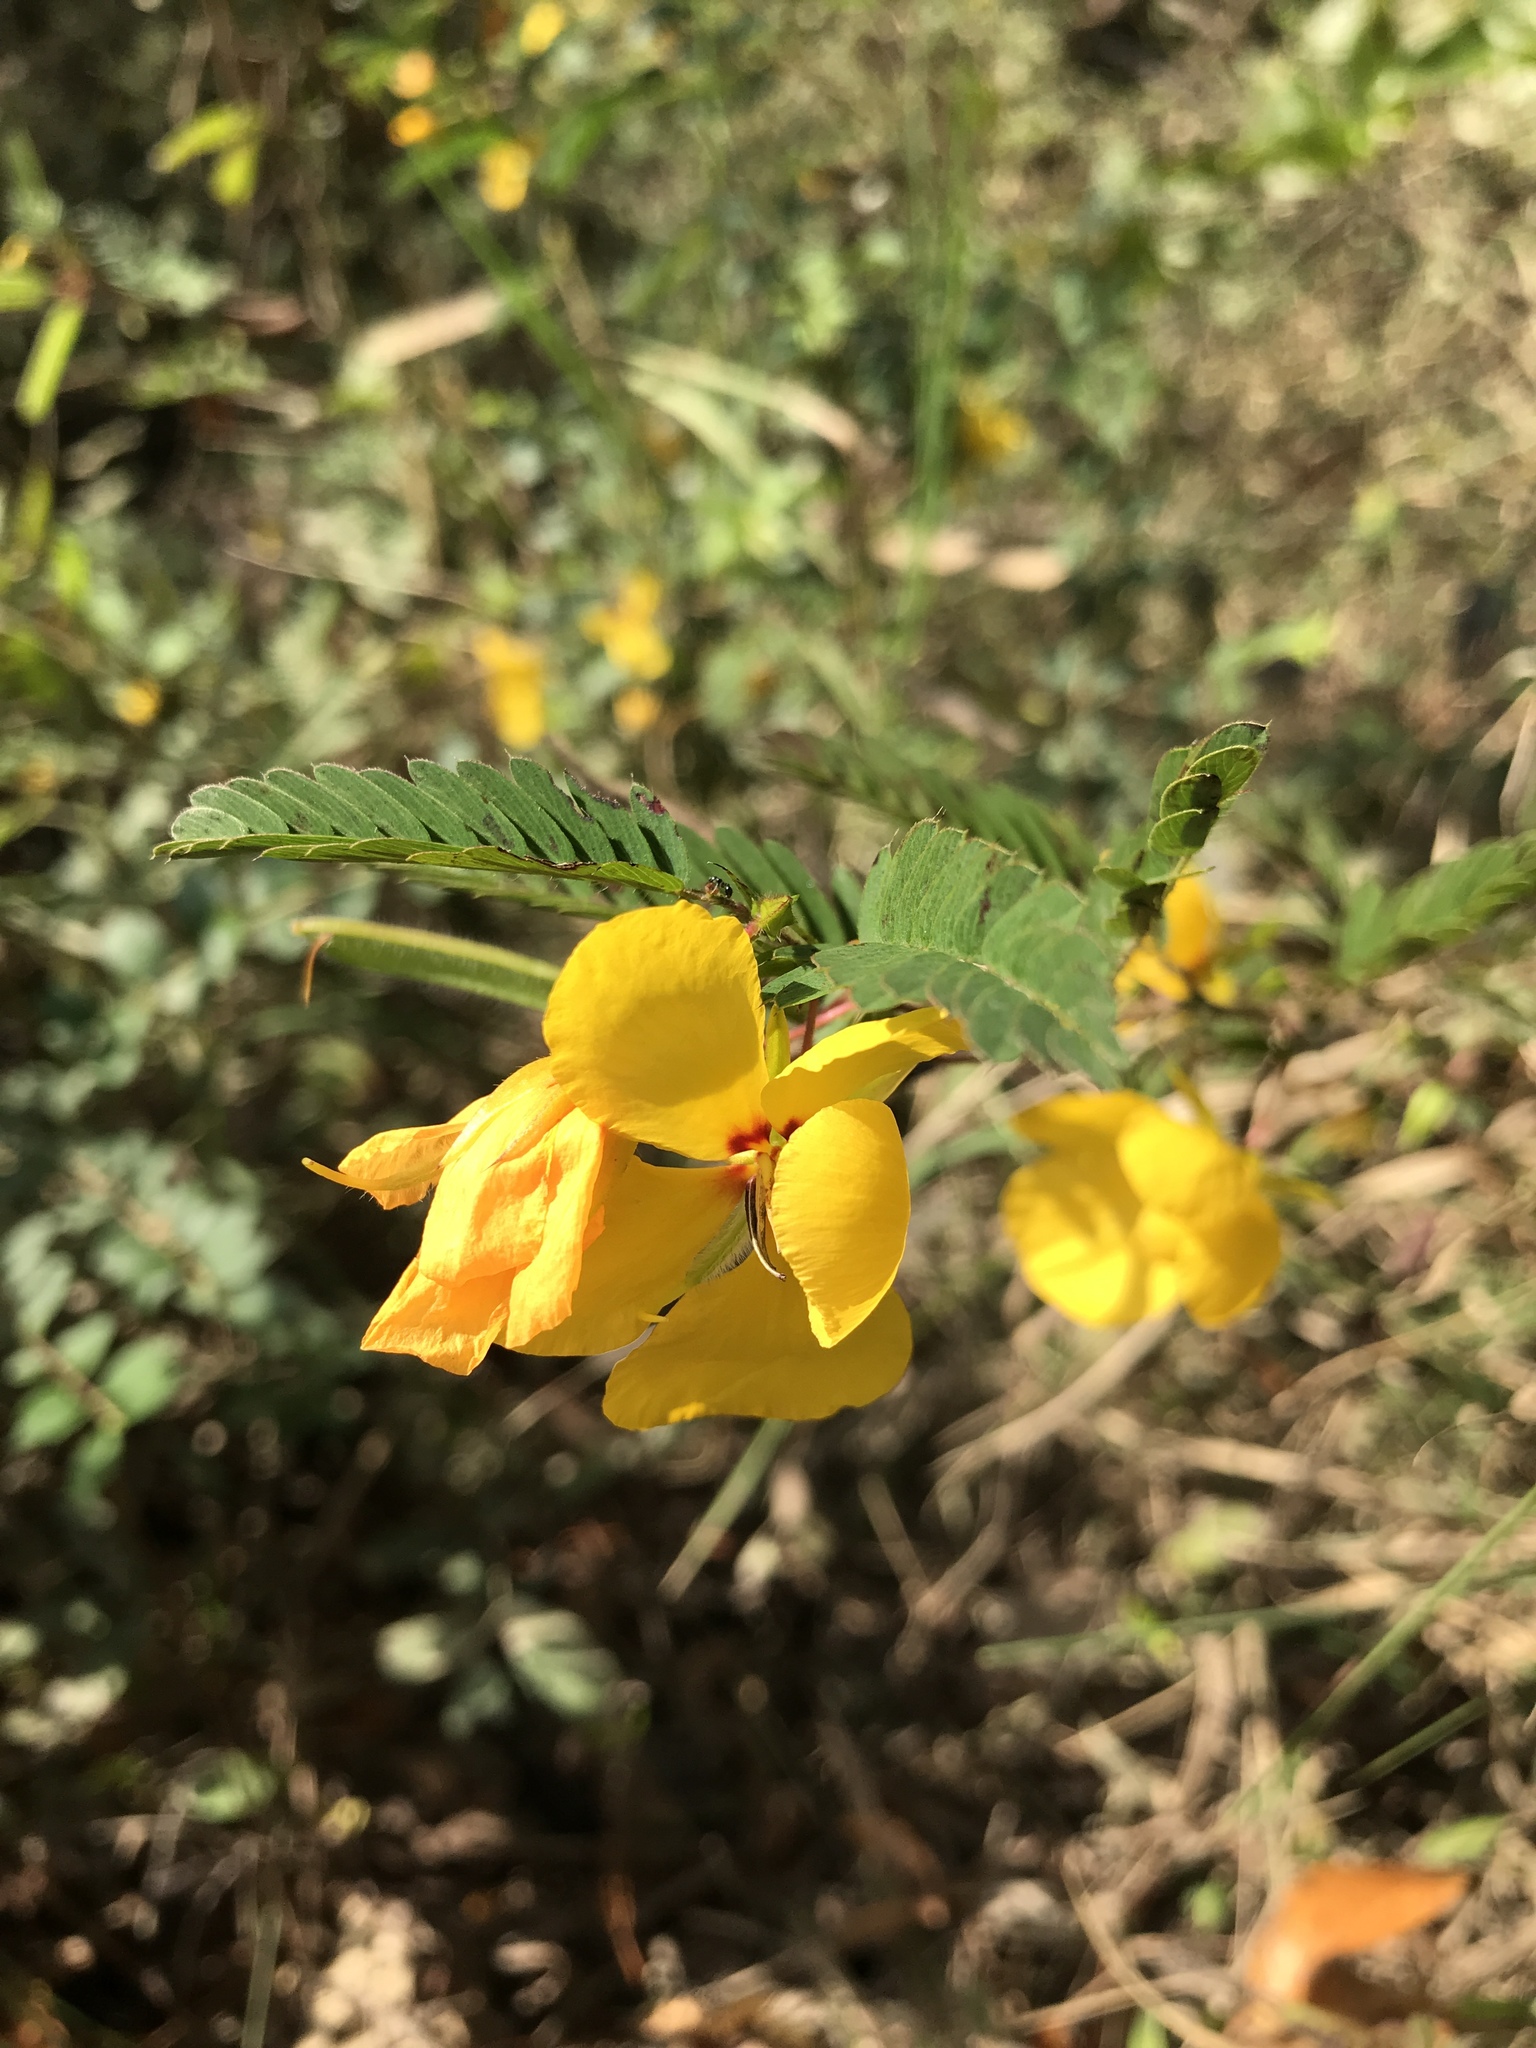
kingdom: Plantae
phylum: Tracheophyta
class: Magnoliopsida
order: Fabales
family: Fabaceae
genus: Chamaecrista
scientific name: Chamaecrista fasciculata
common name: Golden cassia
